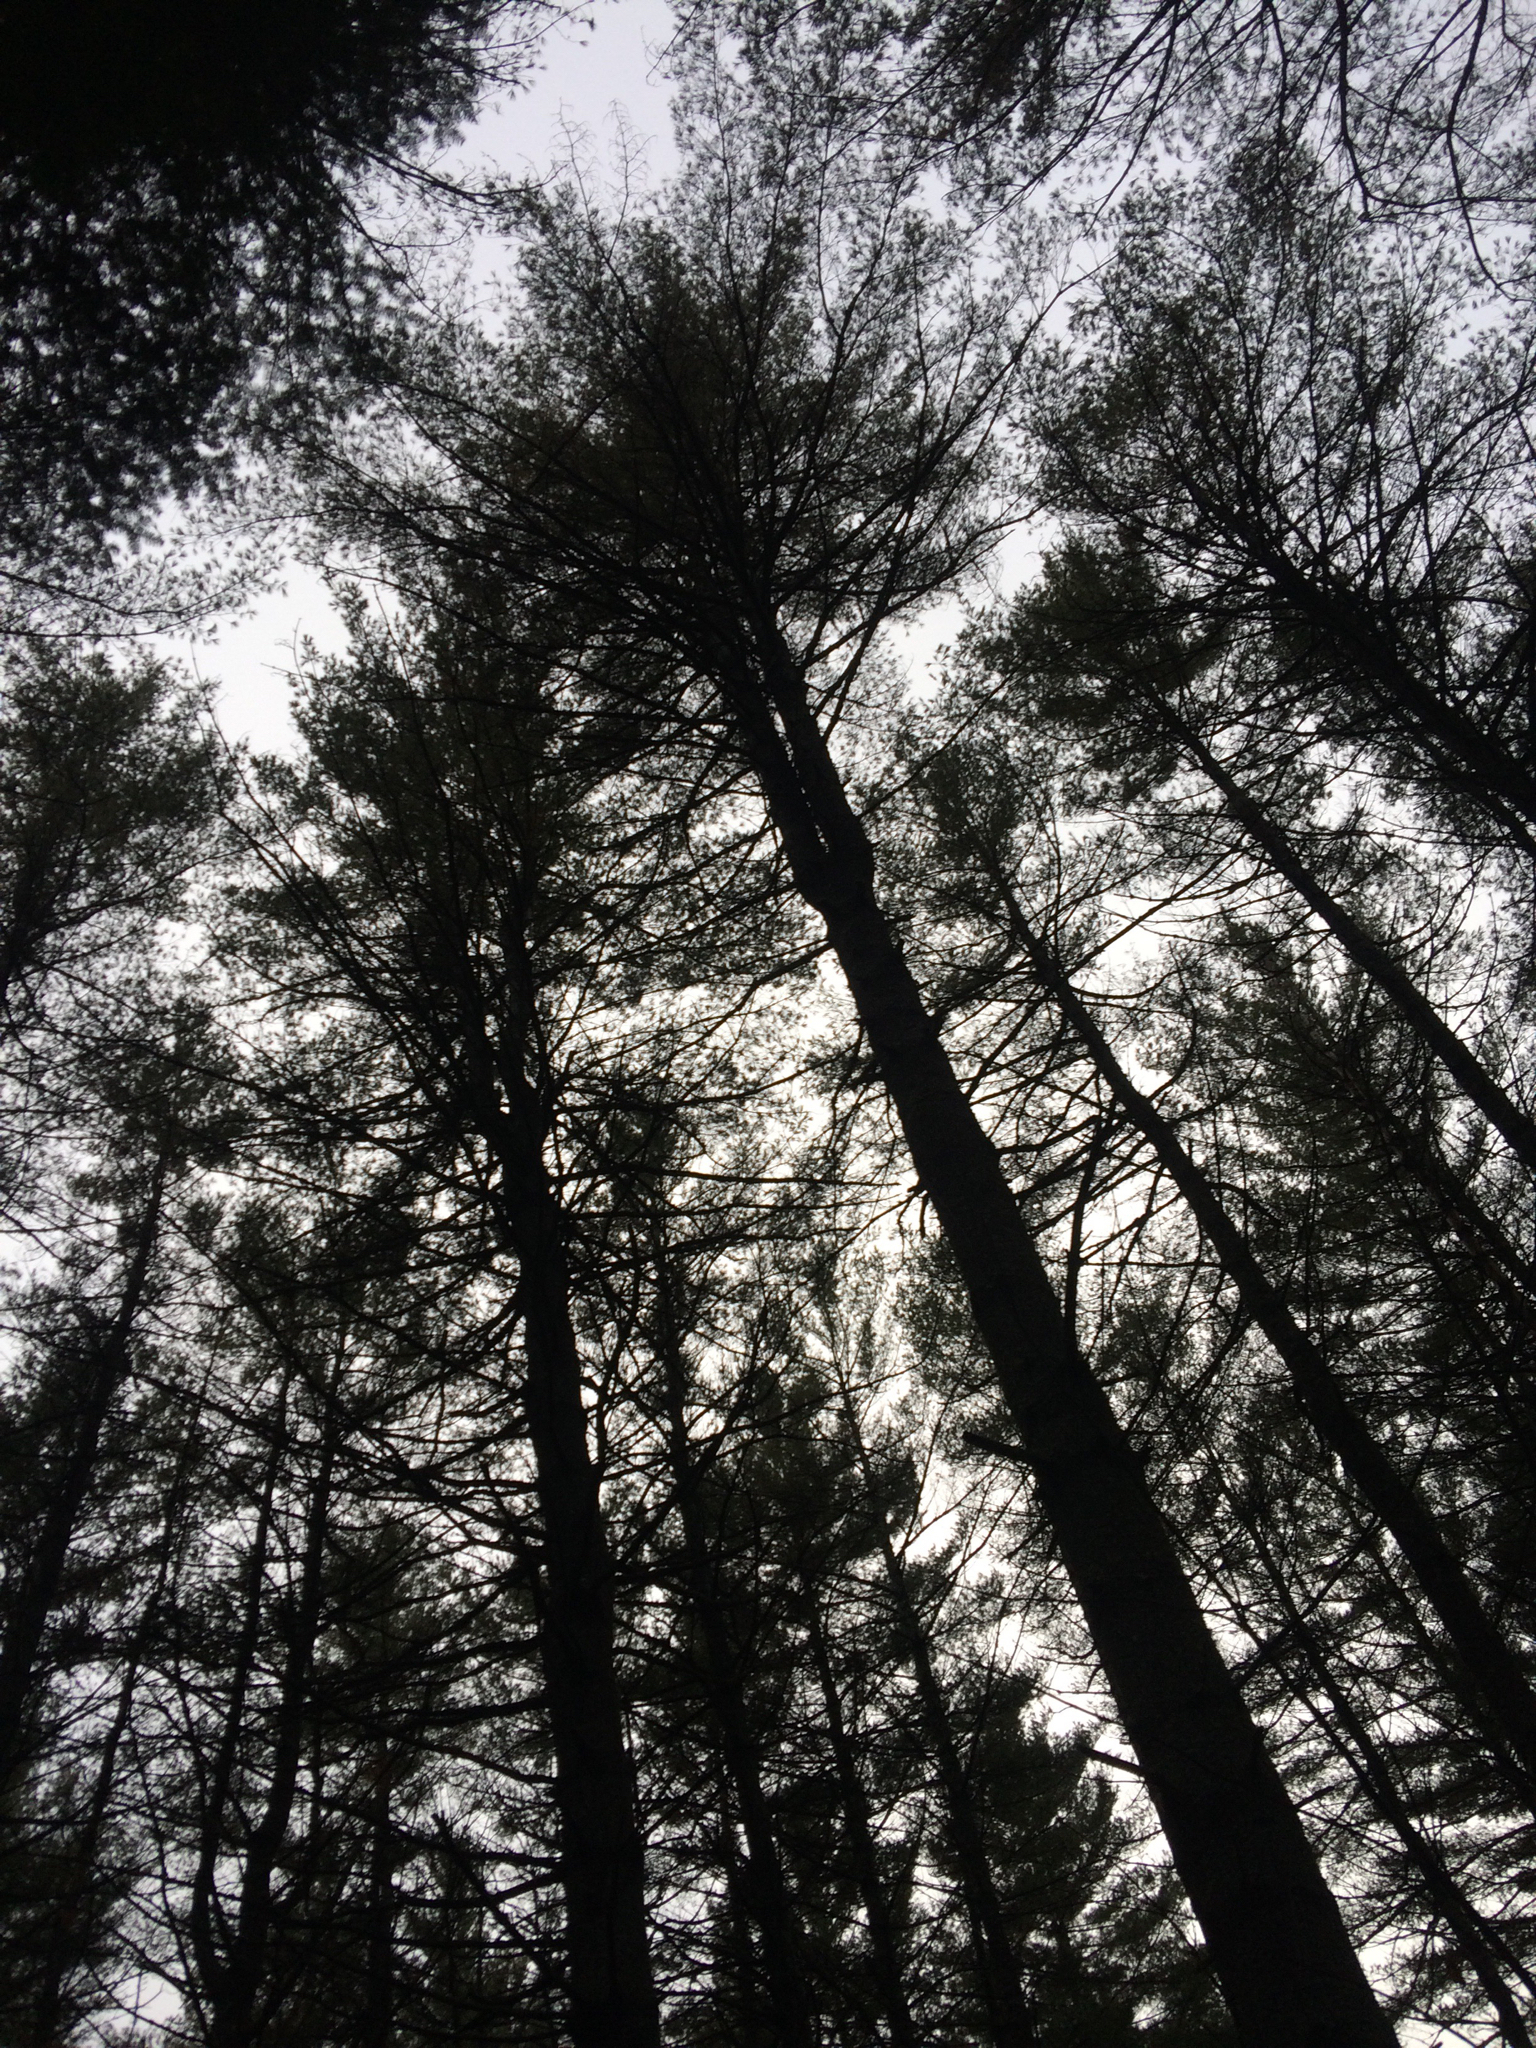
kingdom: Plantae
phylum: Tracheophyta
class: Pinopsida
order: Pinales
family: Pinaceae
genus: Pinus
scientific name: Pinus strobus
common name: Weymouth pine
